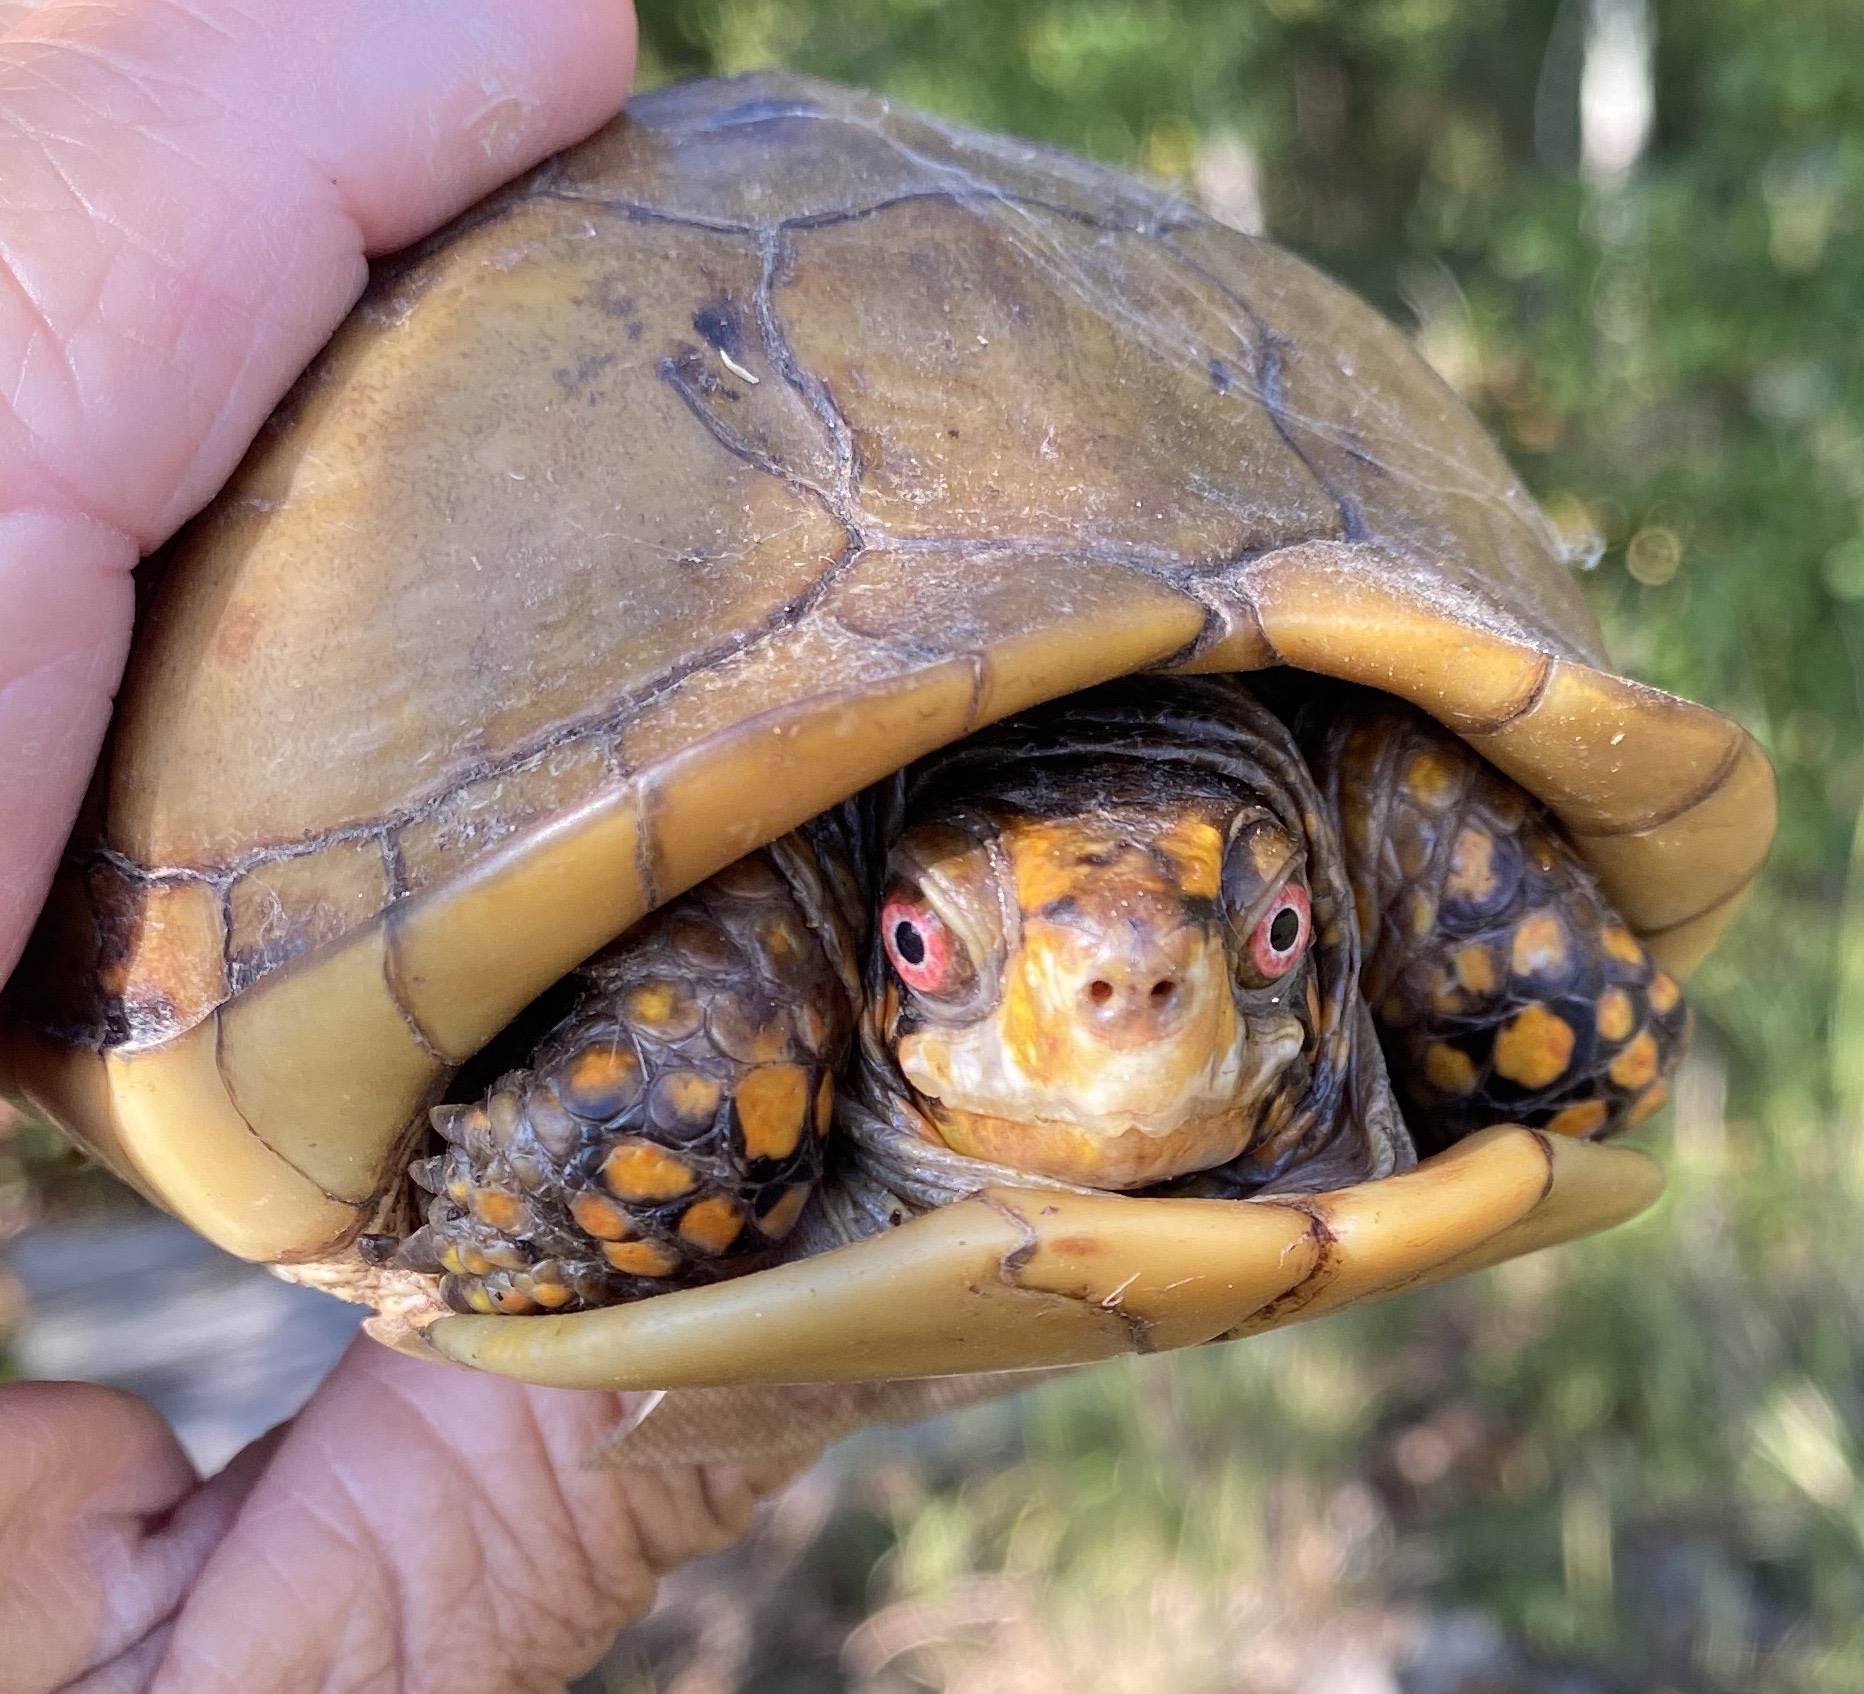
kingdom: Animalia
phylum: Chordata
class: Testudines
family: Emydidae
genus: Terrapene
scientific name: Terrapene carolina
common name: Common box turtle
